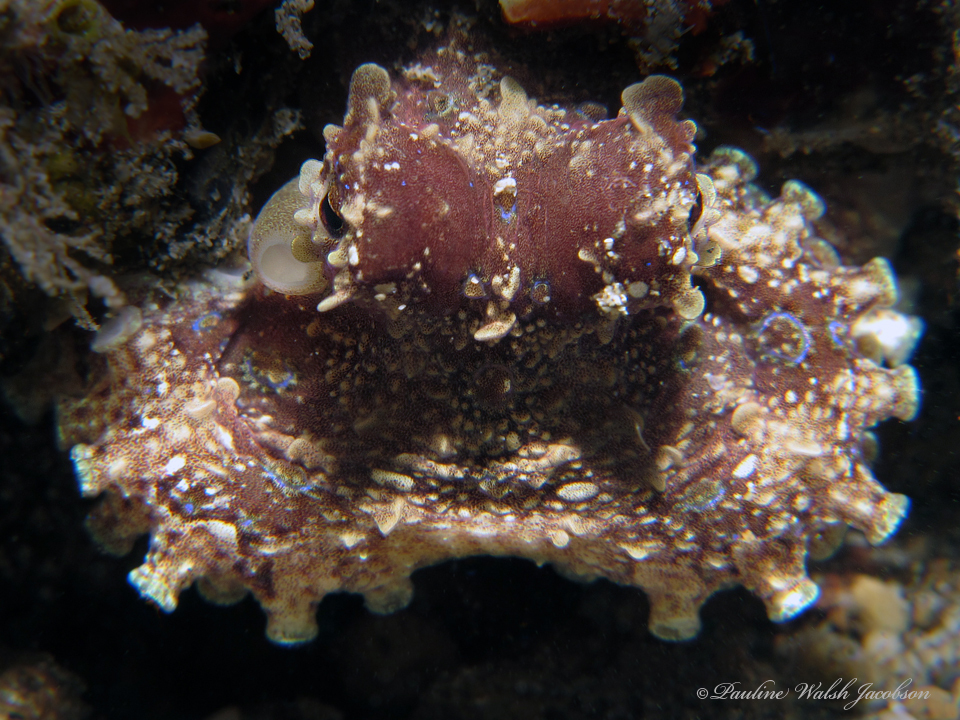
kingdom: Animalia
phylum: Mollusca
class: Cephalopoda
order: Octopoda
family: Octopodidae
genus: Hapalochlaena
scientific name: Hapalochlaena lunulata
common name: Greater blue-ringed octopus
